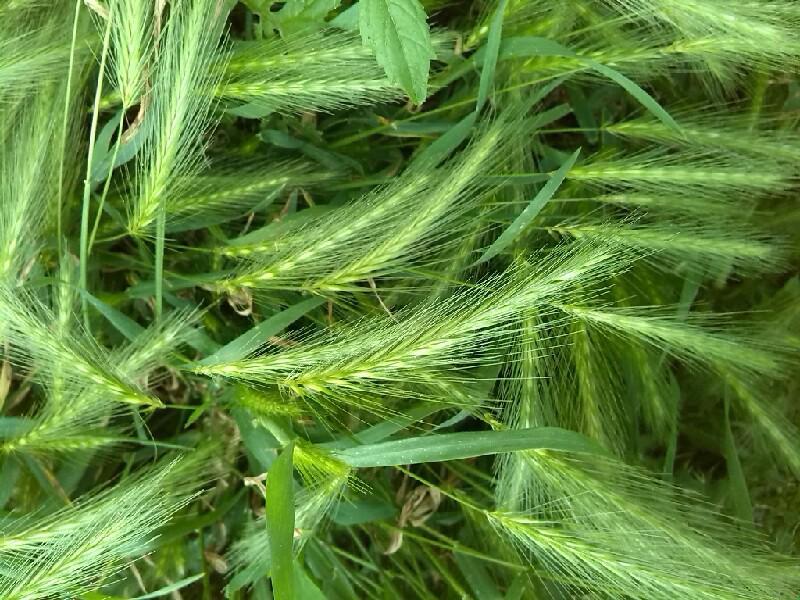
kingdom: Plantae
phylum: Tracheophyta
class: Liliopsida
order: Poales
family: Poaceae
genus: Hordeum
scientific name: Hordeum murinum
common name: Wall barley
